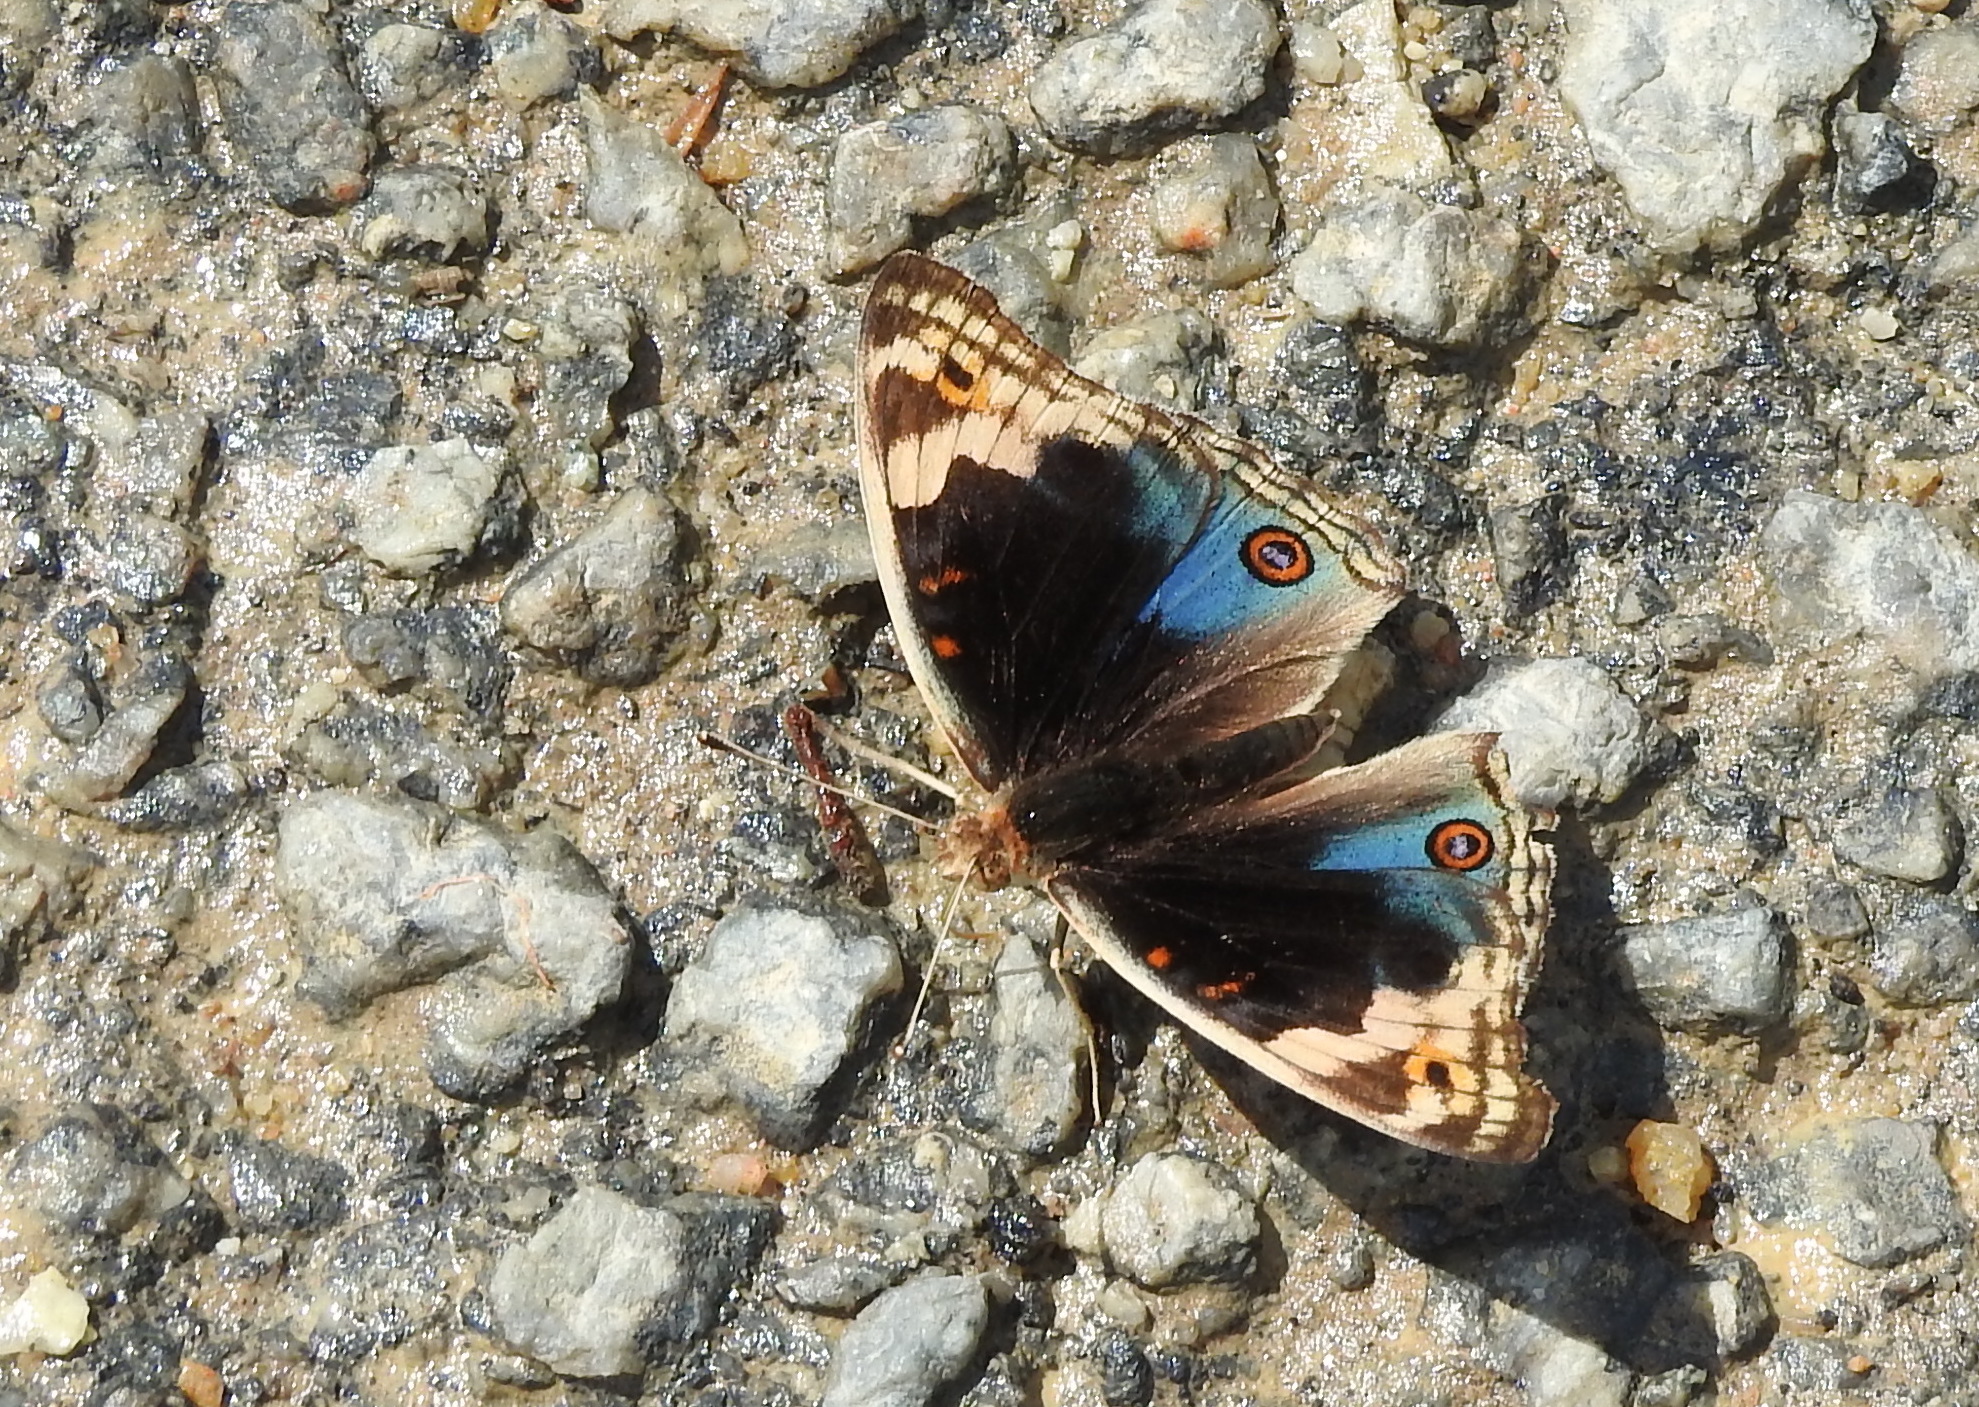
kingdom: Animalia
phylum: Arthropoda
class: Insecta
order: Lepidoptera
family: Nymphalidae
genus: Junonia
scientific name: Junonia orithya
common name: Blue pansy
